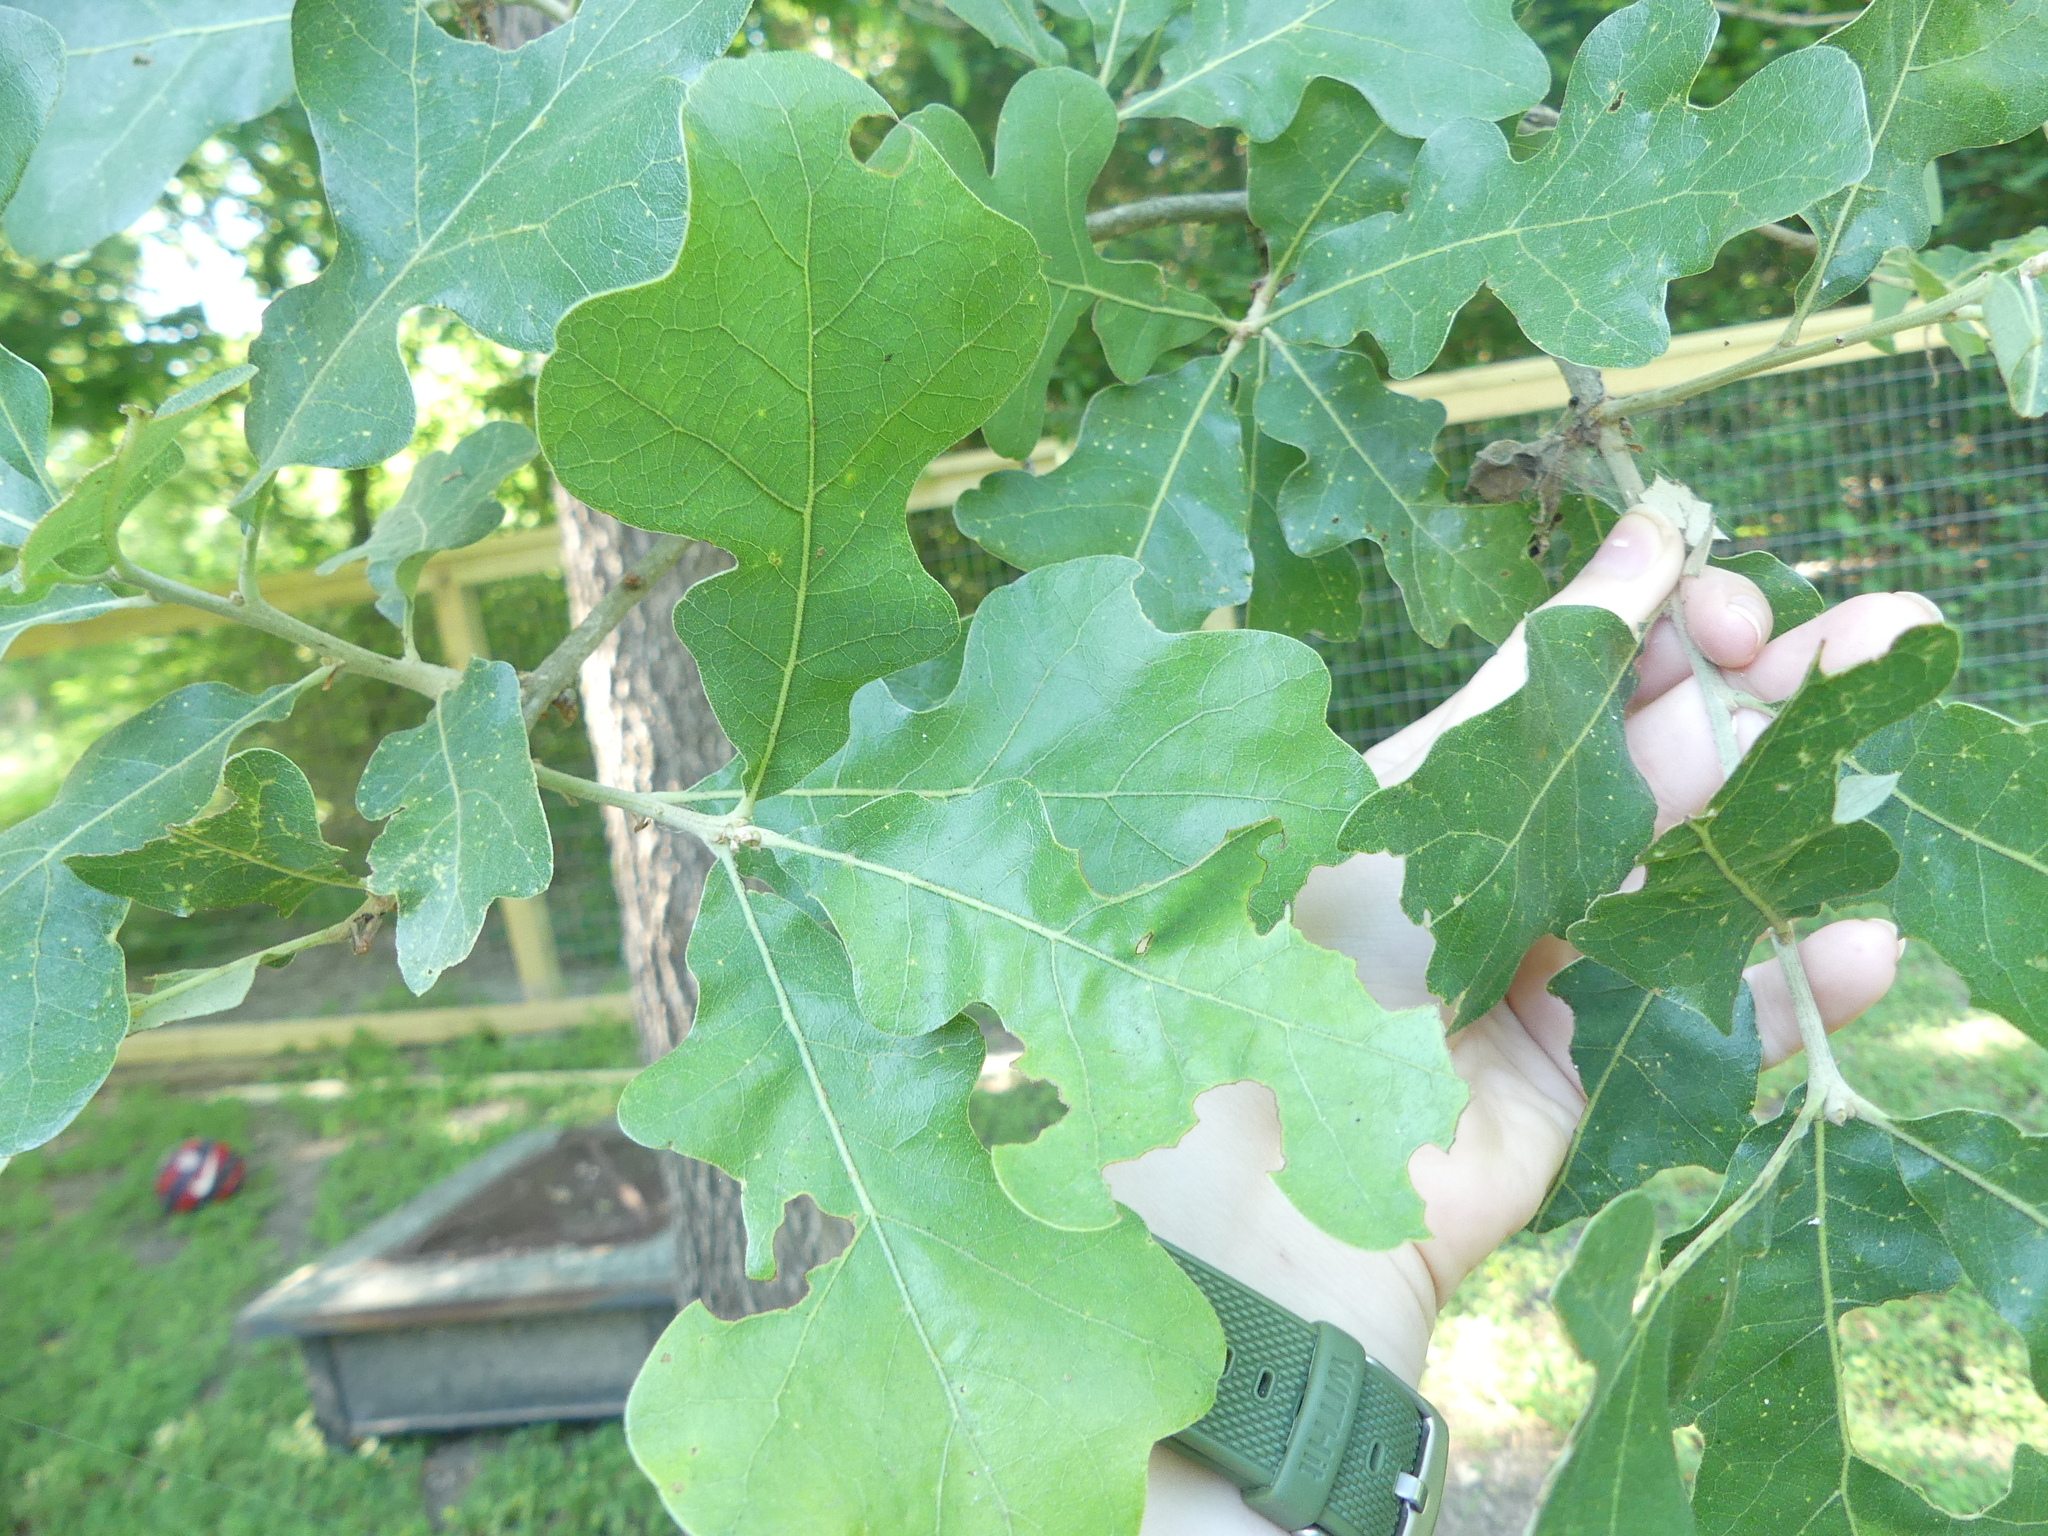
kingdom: Plantae
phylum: Tracheophyta
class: Magnoliopsida
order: Fagales
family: Fagaceae
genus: Quercus
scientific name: Quercus stellata
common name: Post oak
